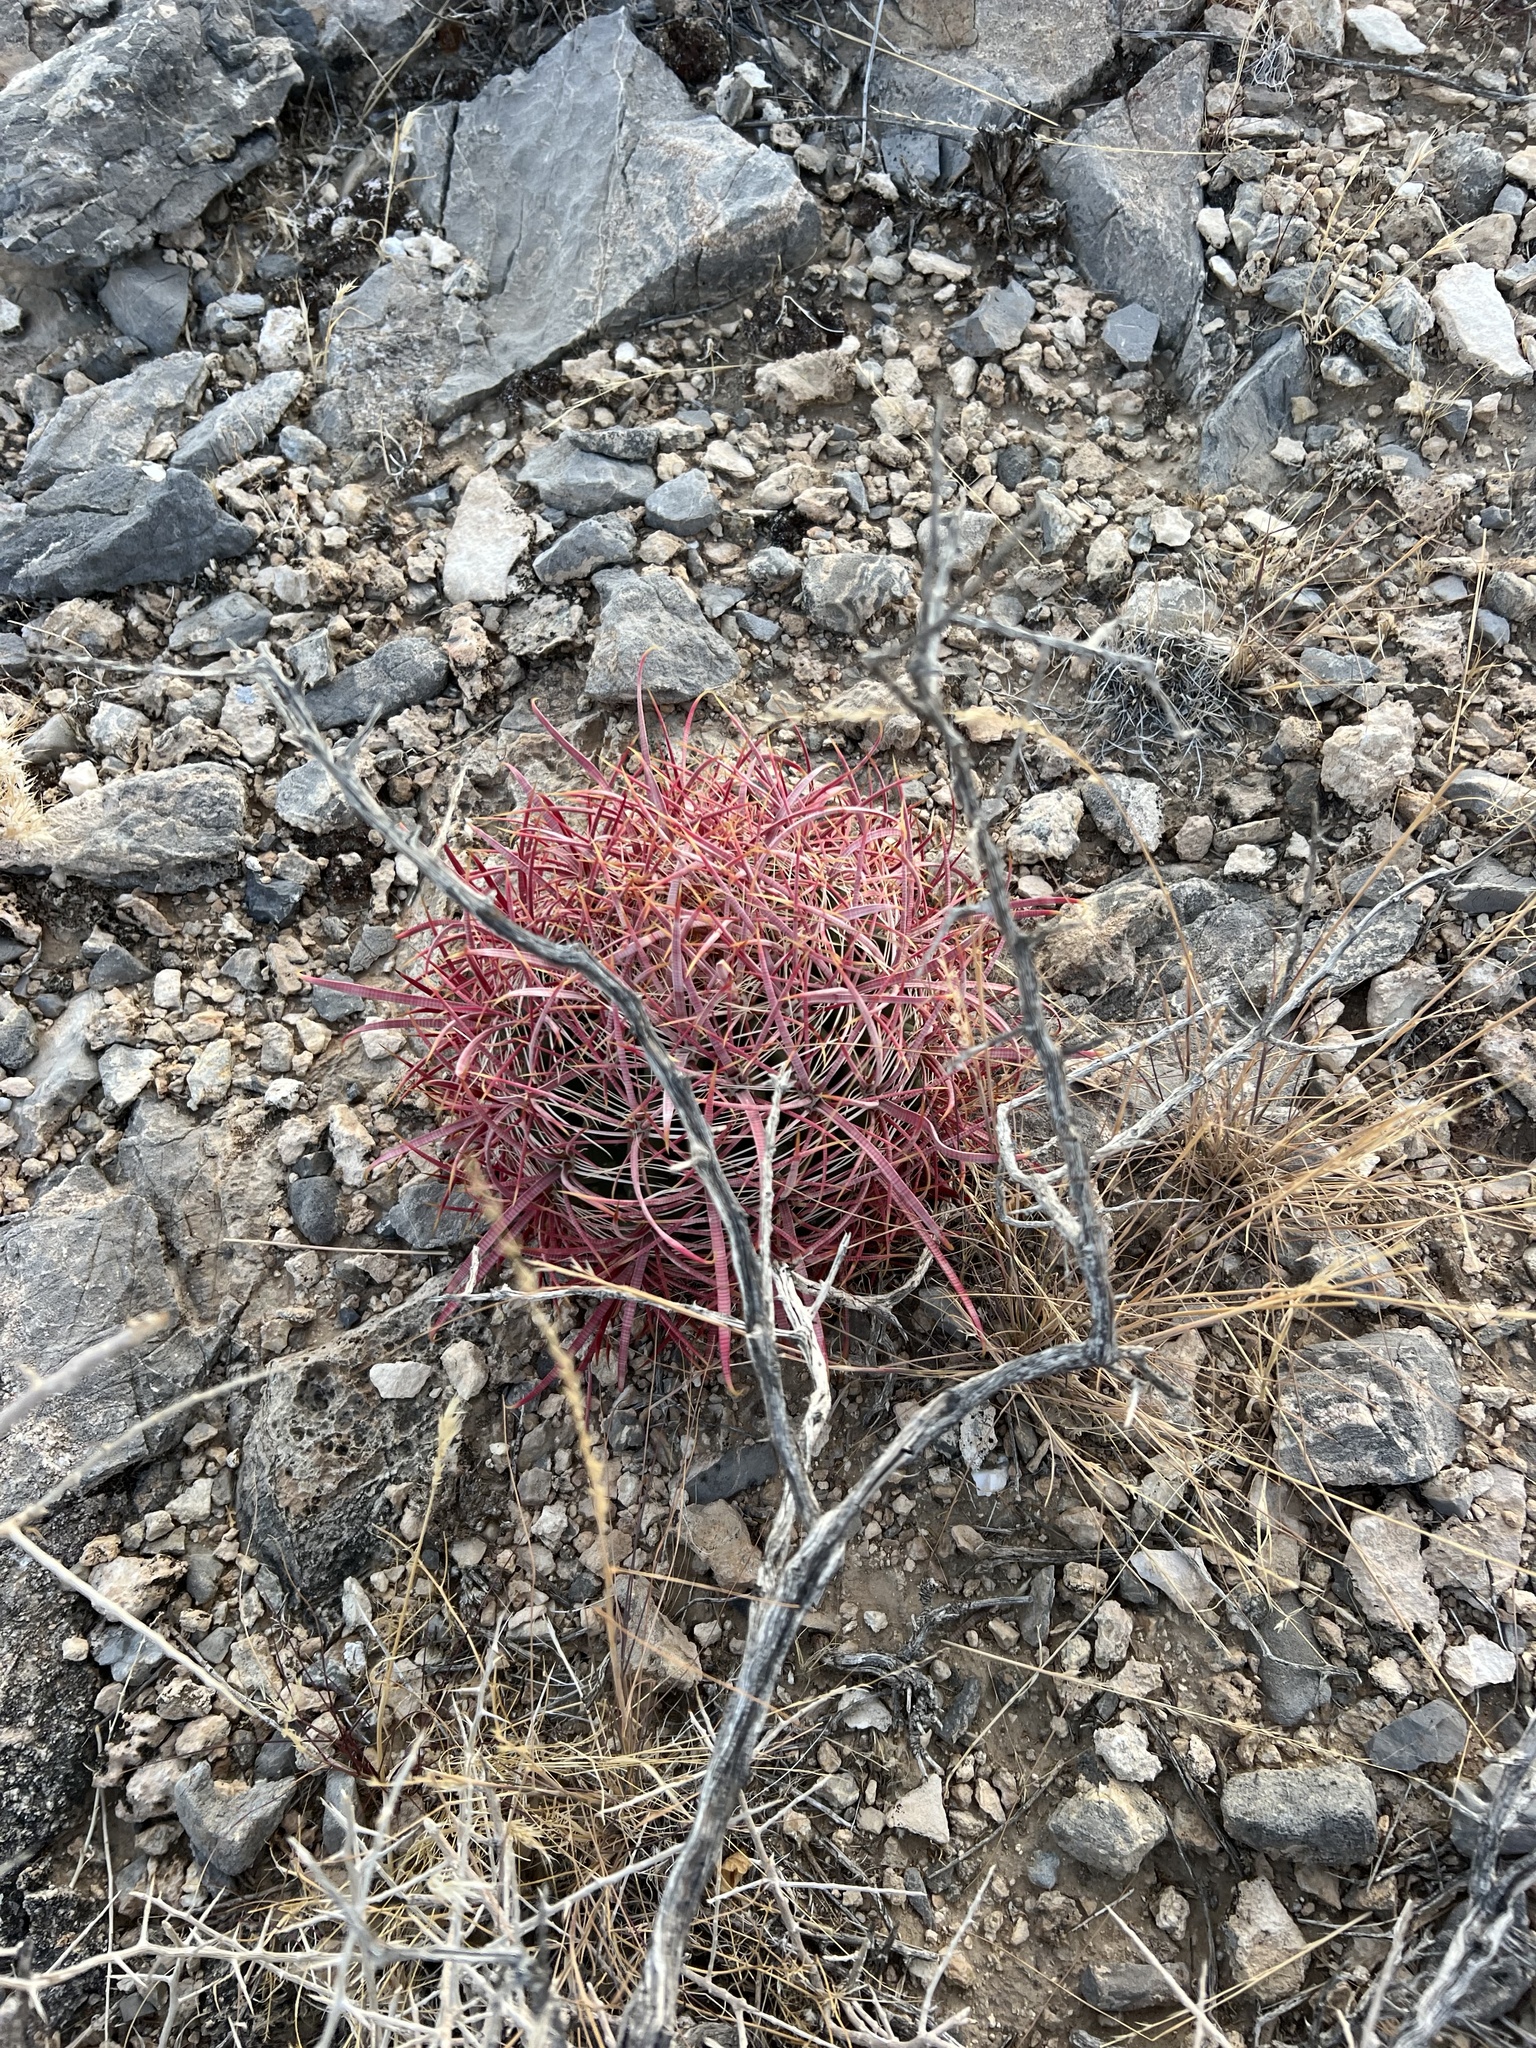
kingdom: Plantae
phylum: Tracheophyta
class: Magnoliopsida
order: Caryophyllales
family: Cactaceae
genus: Ferocactus
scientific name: Ferocactus cylindraceus
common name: California barrel cactus
